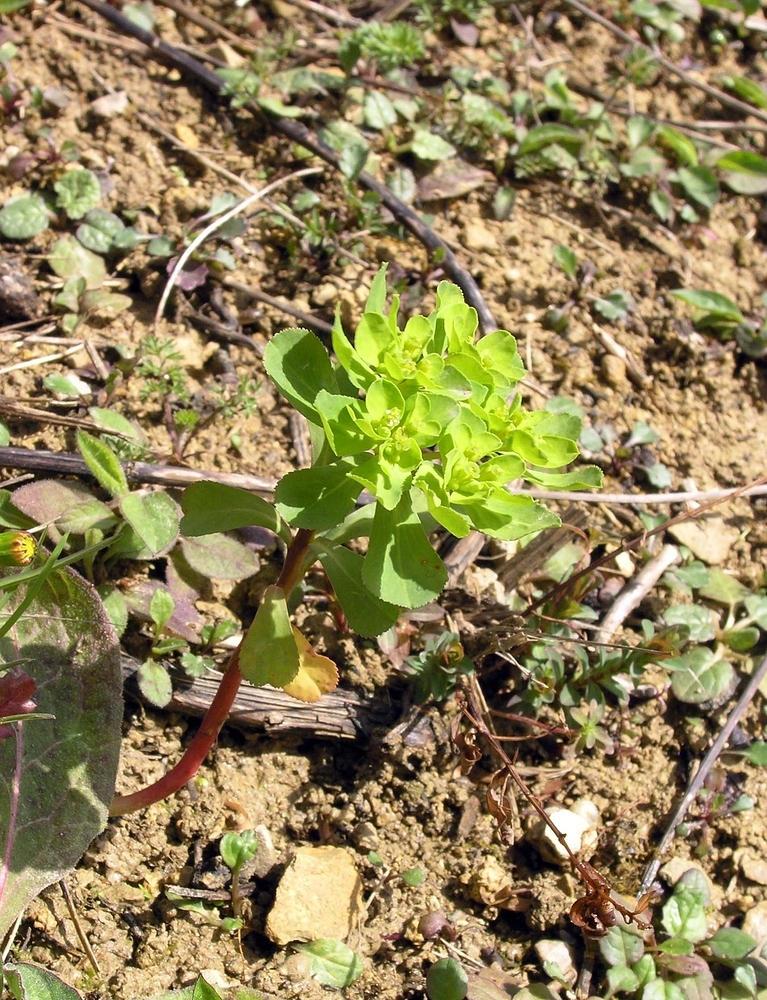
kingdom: Plantae
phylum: Tracheophyta
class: Magnoliopsida
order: Malpighiales
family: Euphorbiaceae
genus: Euphorbia
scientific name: Euphorbia helioscopia
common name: Sun spurge
